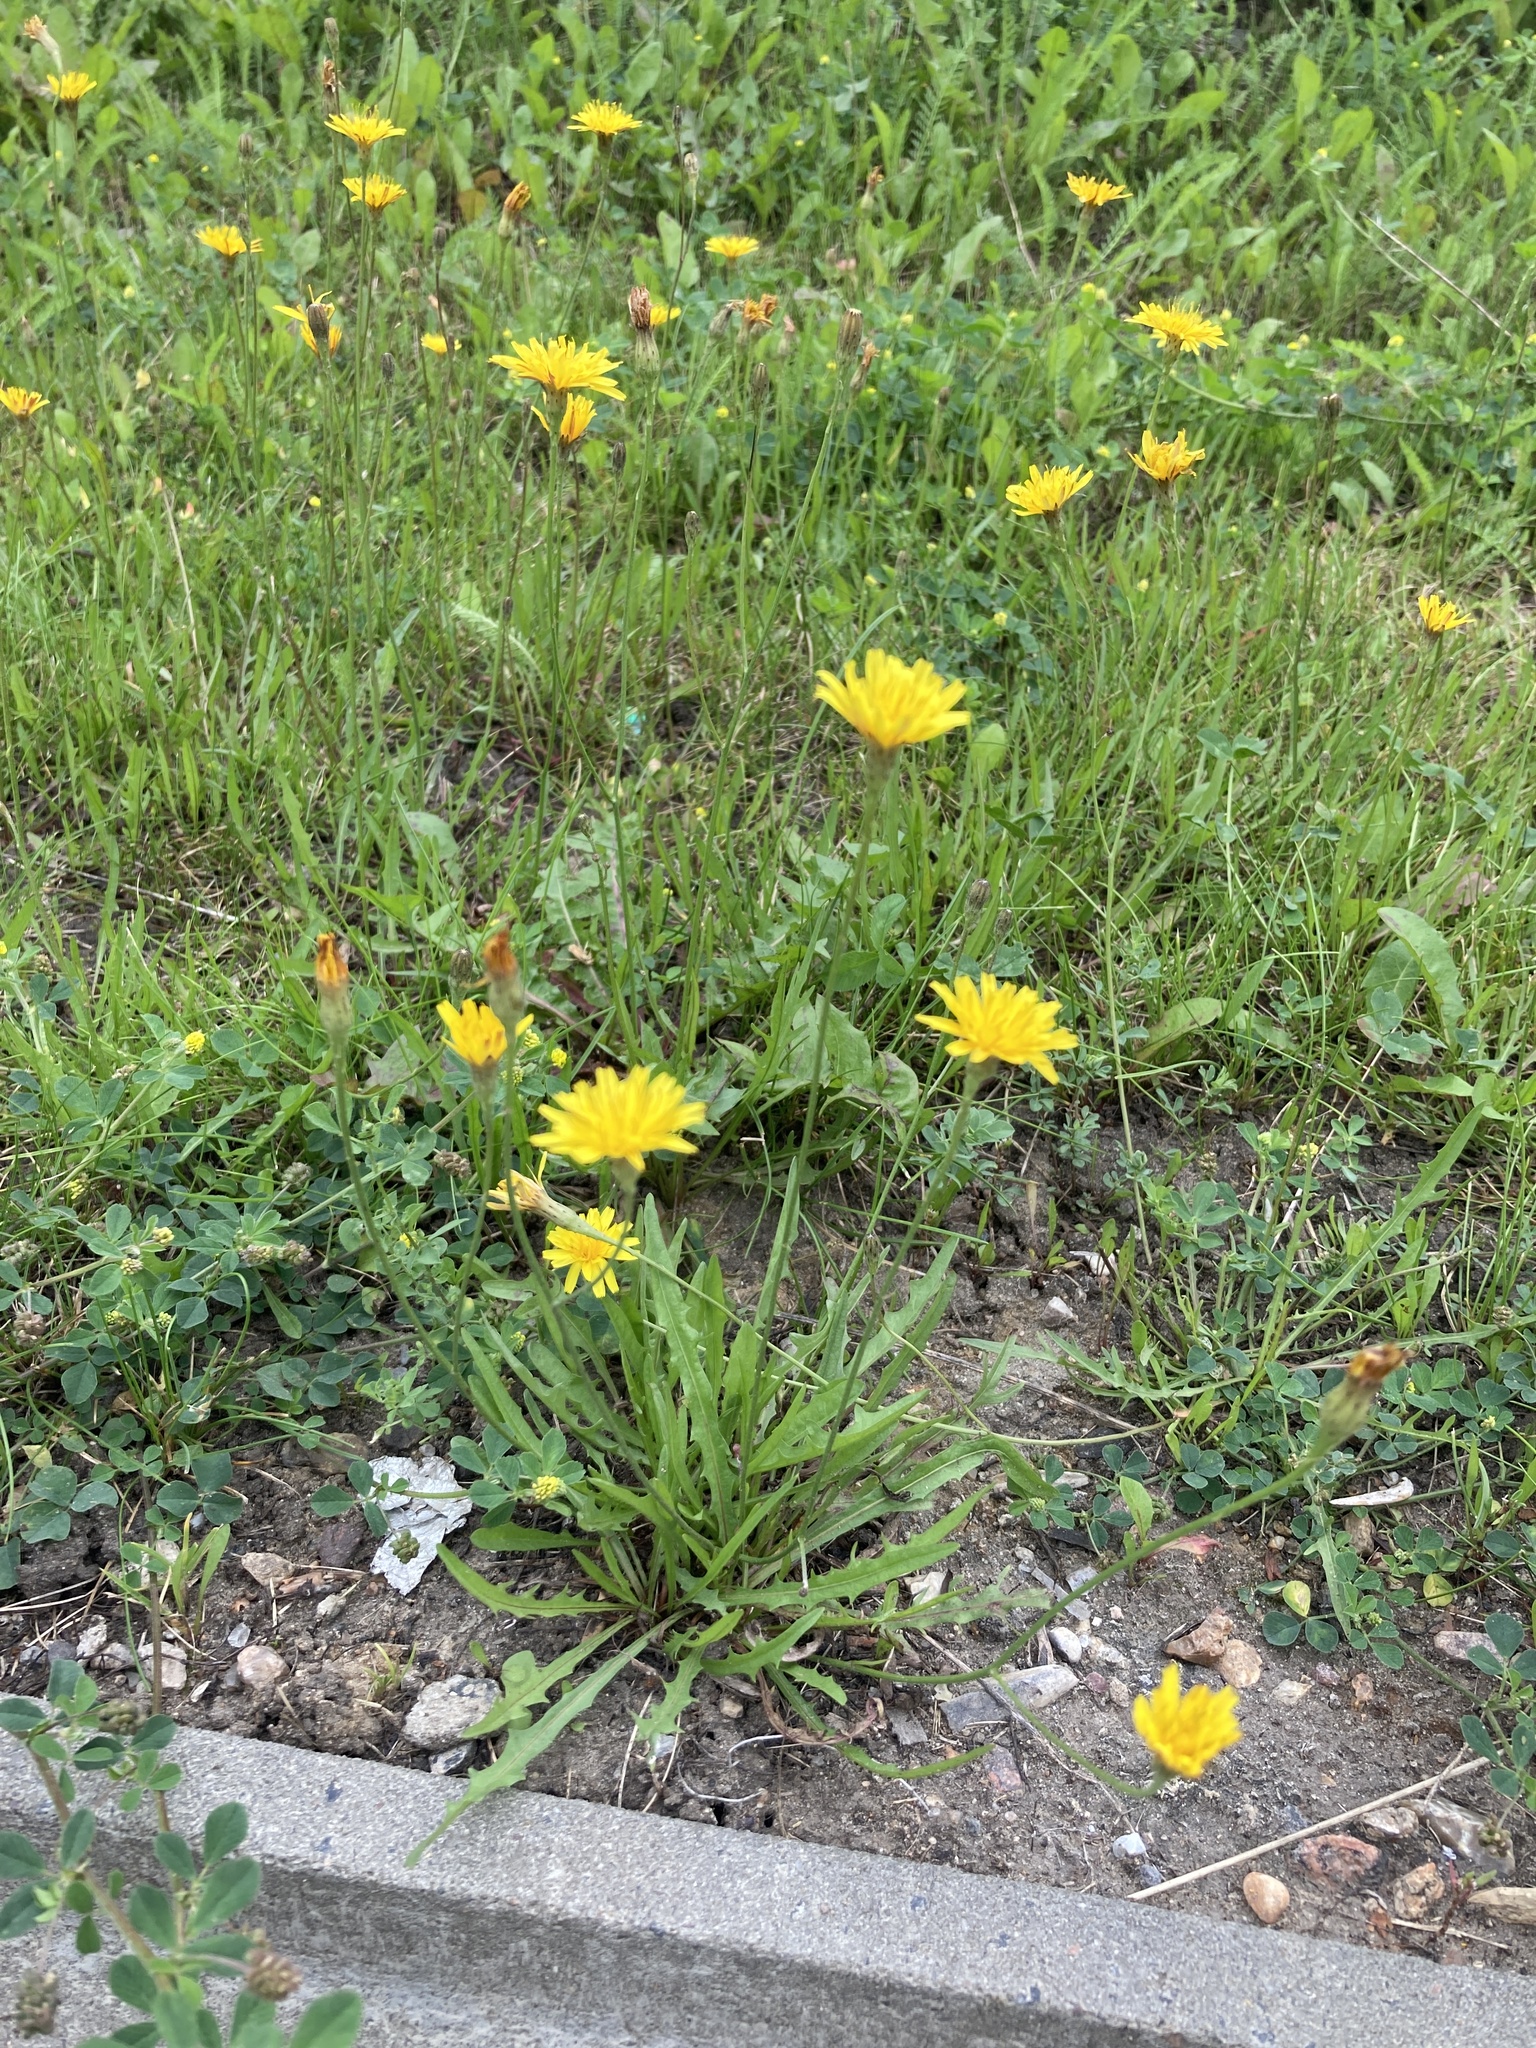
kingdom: Plantae
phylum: Tracheophyta
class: Magnoliopsida
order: Asterales
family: Asteraceae
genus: Scorzoneroides
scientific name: Scorzoneroides autumnalis
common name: Autumn hawkbit
